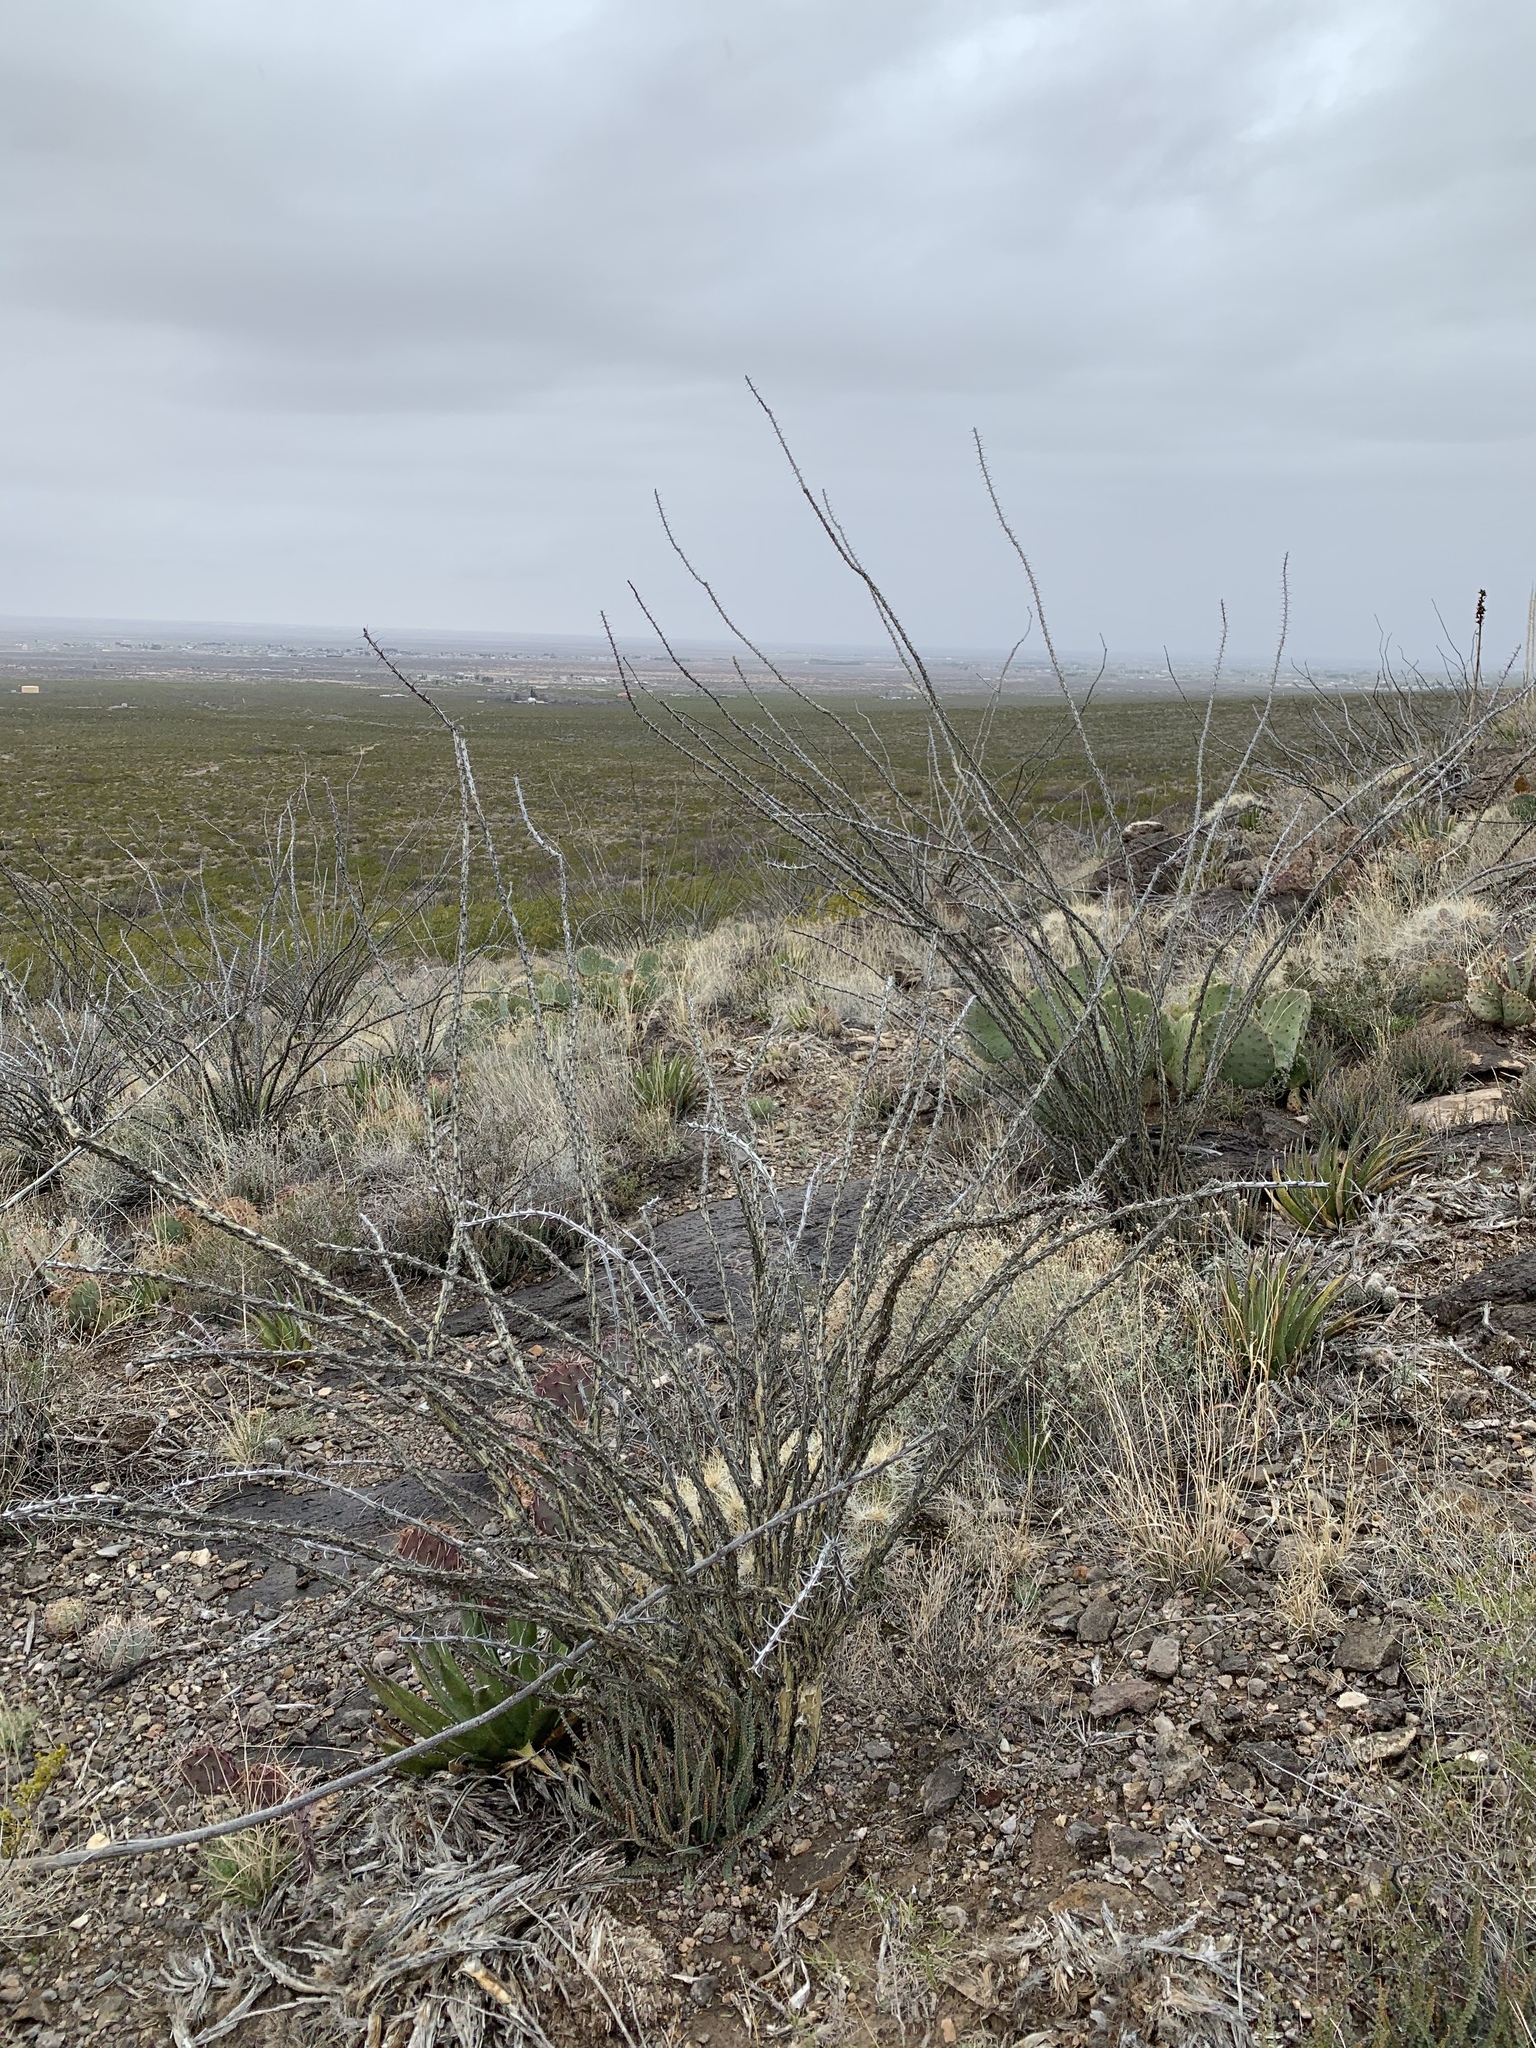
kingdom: Plantae
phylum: Tracheophyta
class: Magnoliopsida
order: Ericales
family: Fouquieriaceae
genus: Fouquieria
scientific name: Fouquieria splendens
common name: Vine-cactus
